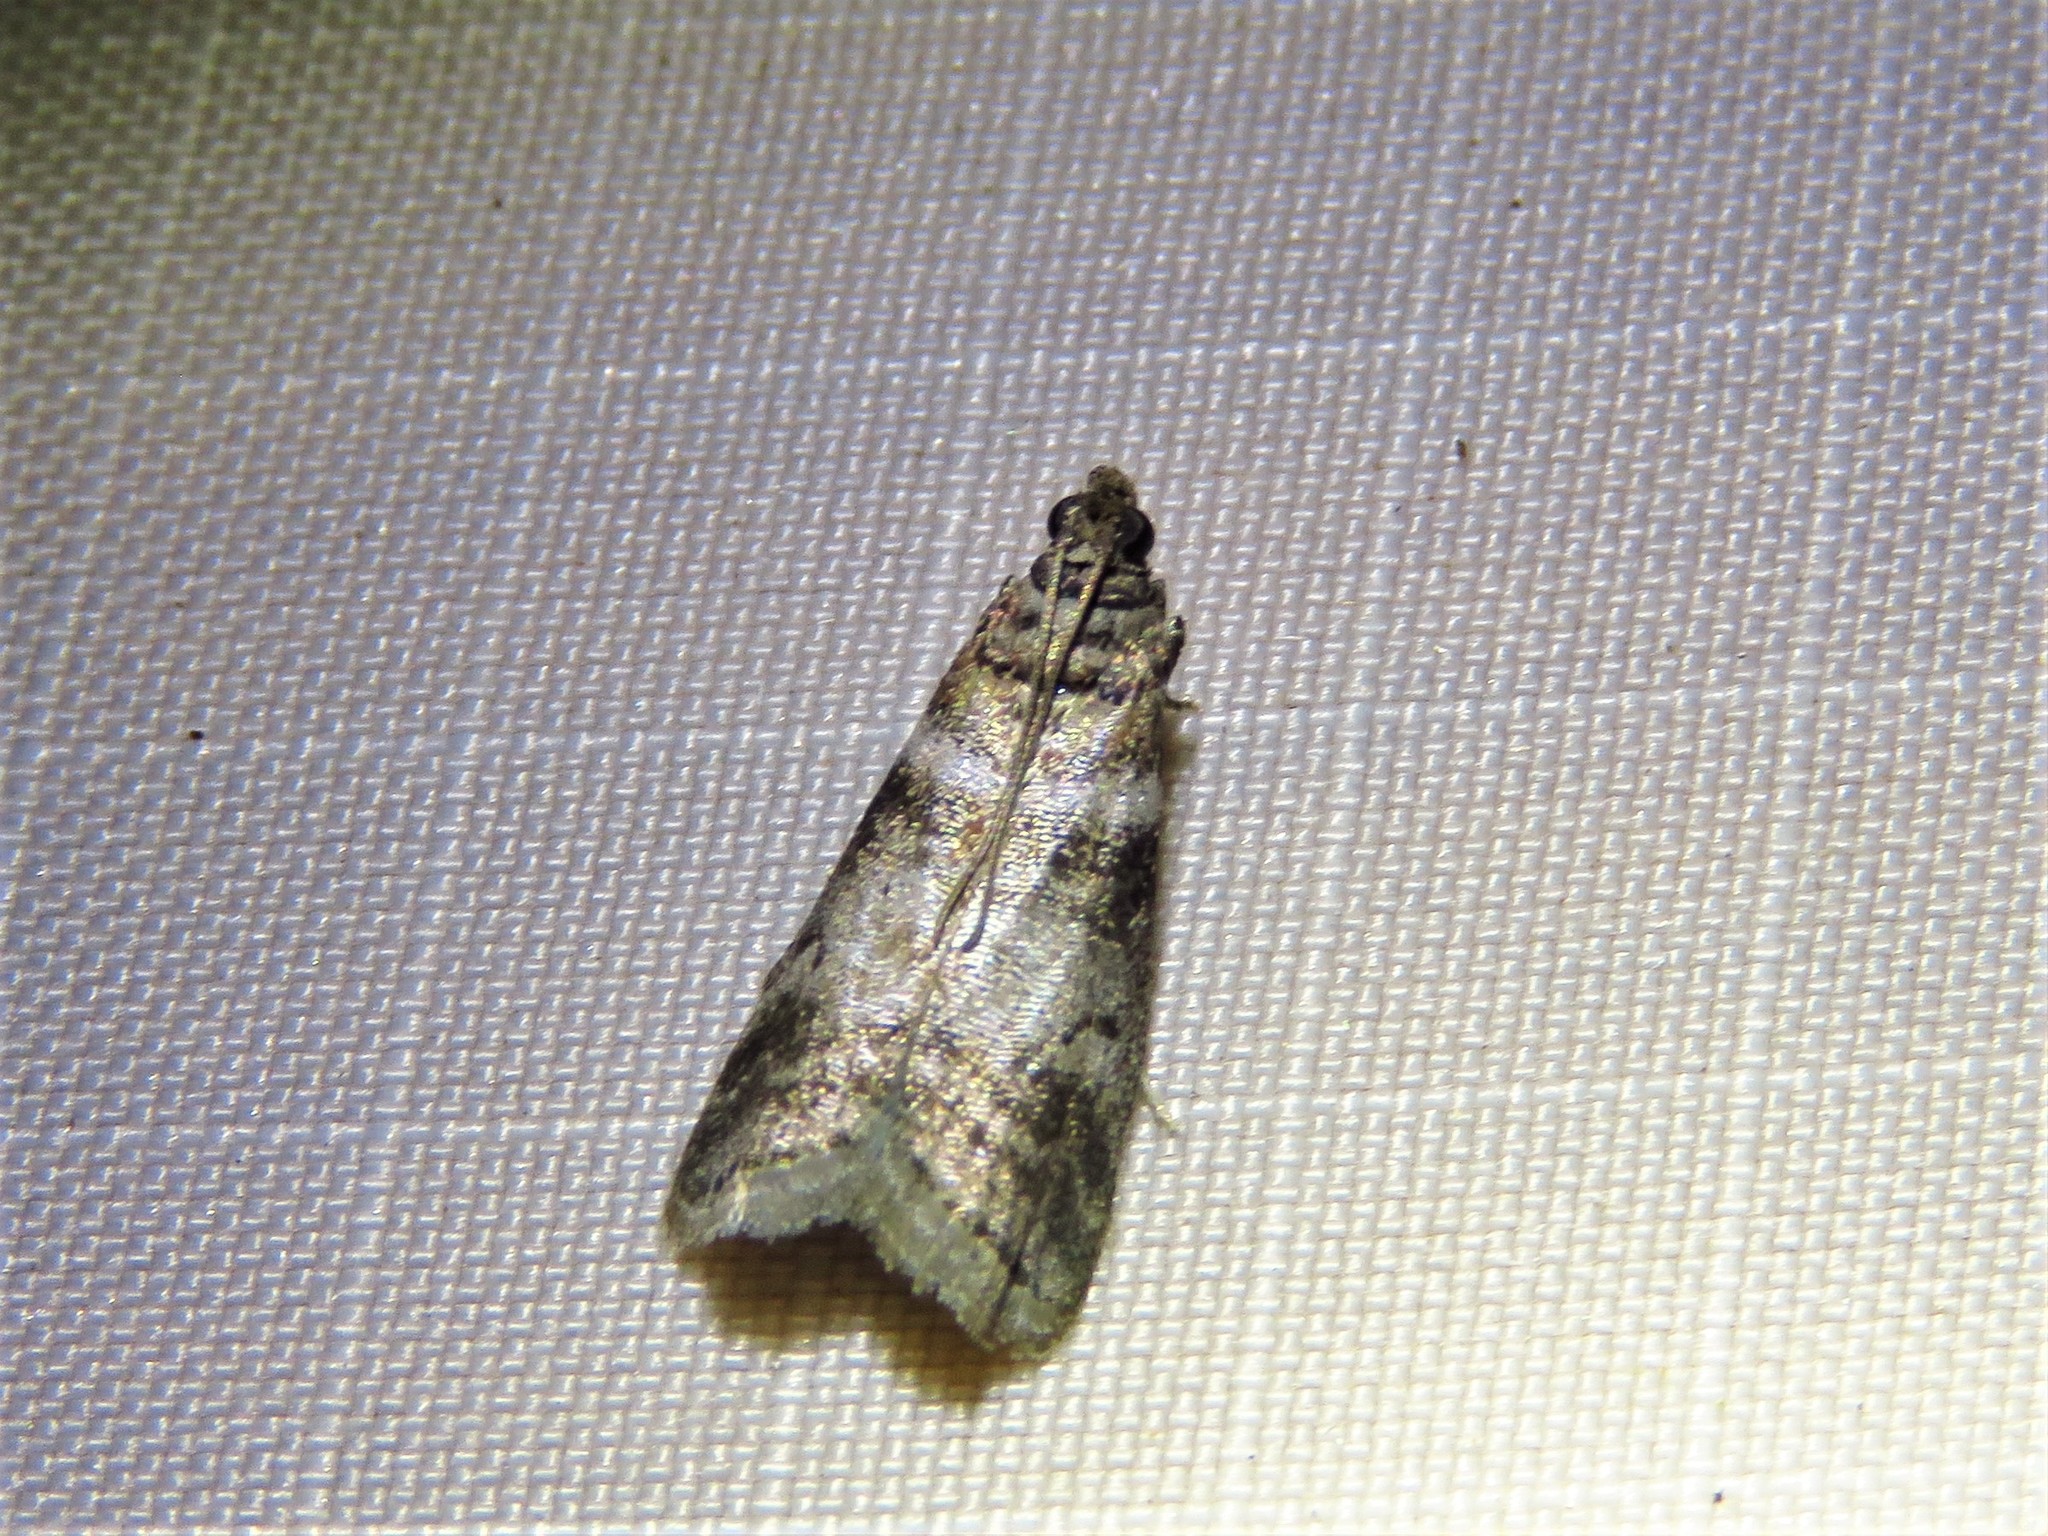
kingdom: Animalia
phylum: Arthropoda
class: Insecta
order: Lepidoptera
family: Pyralidae
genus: Sciota
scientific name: Sciota uvinella
